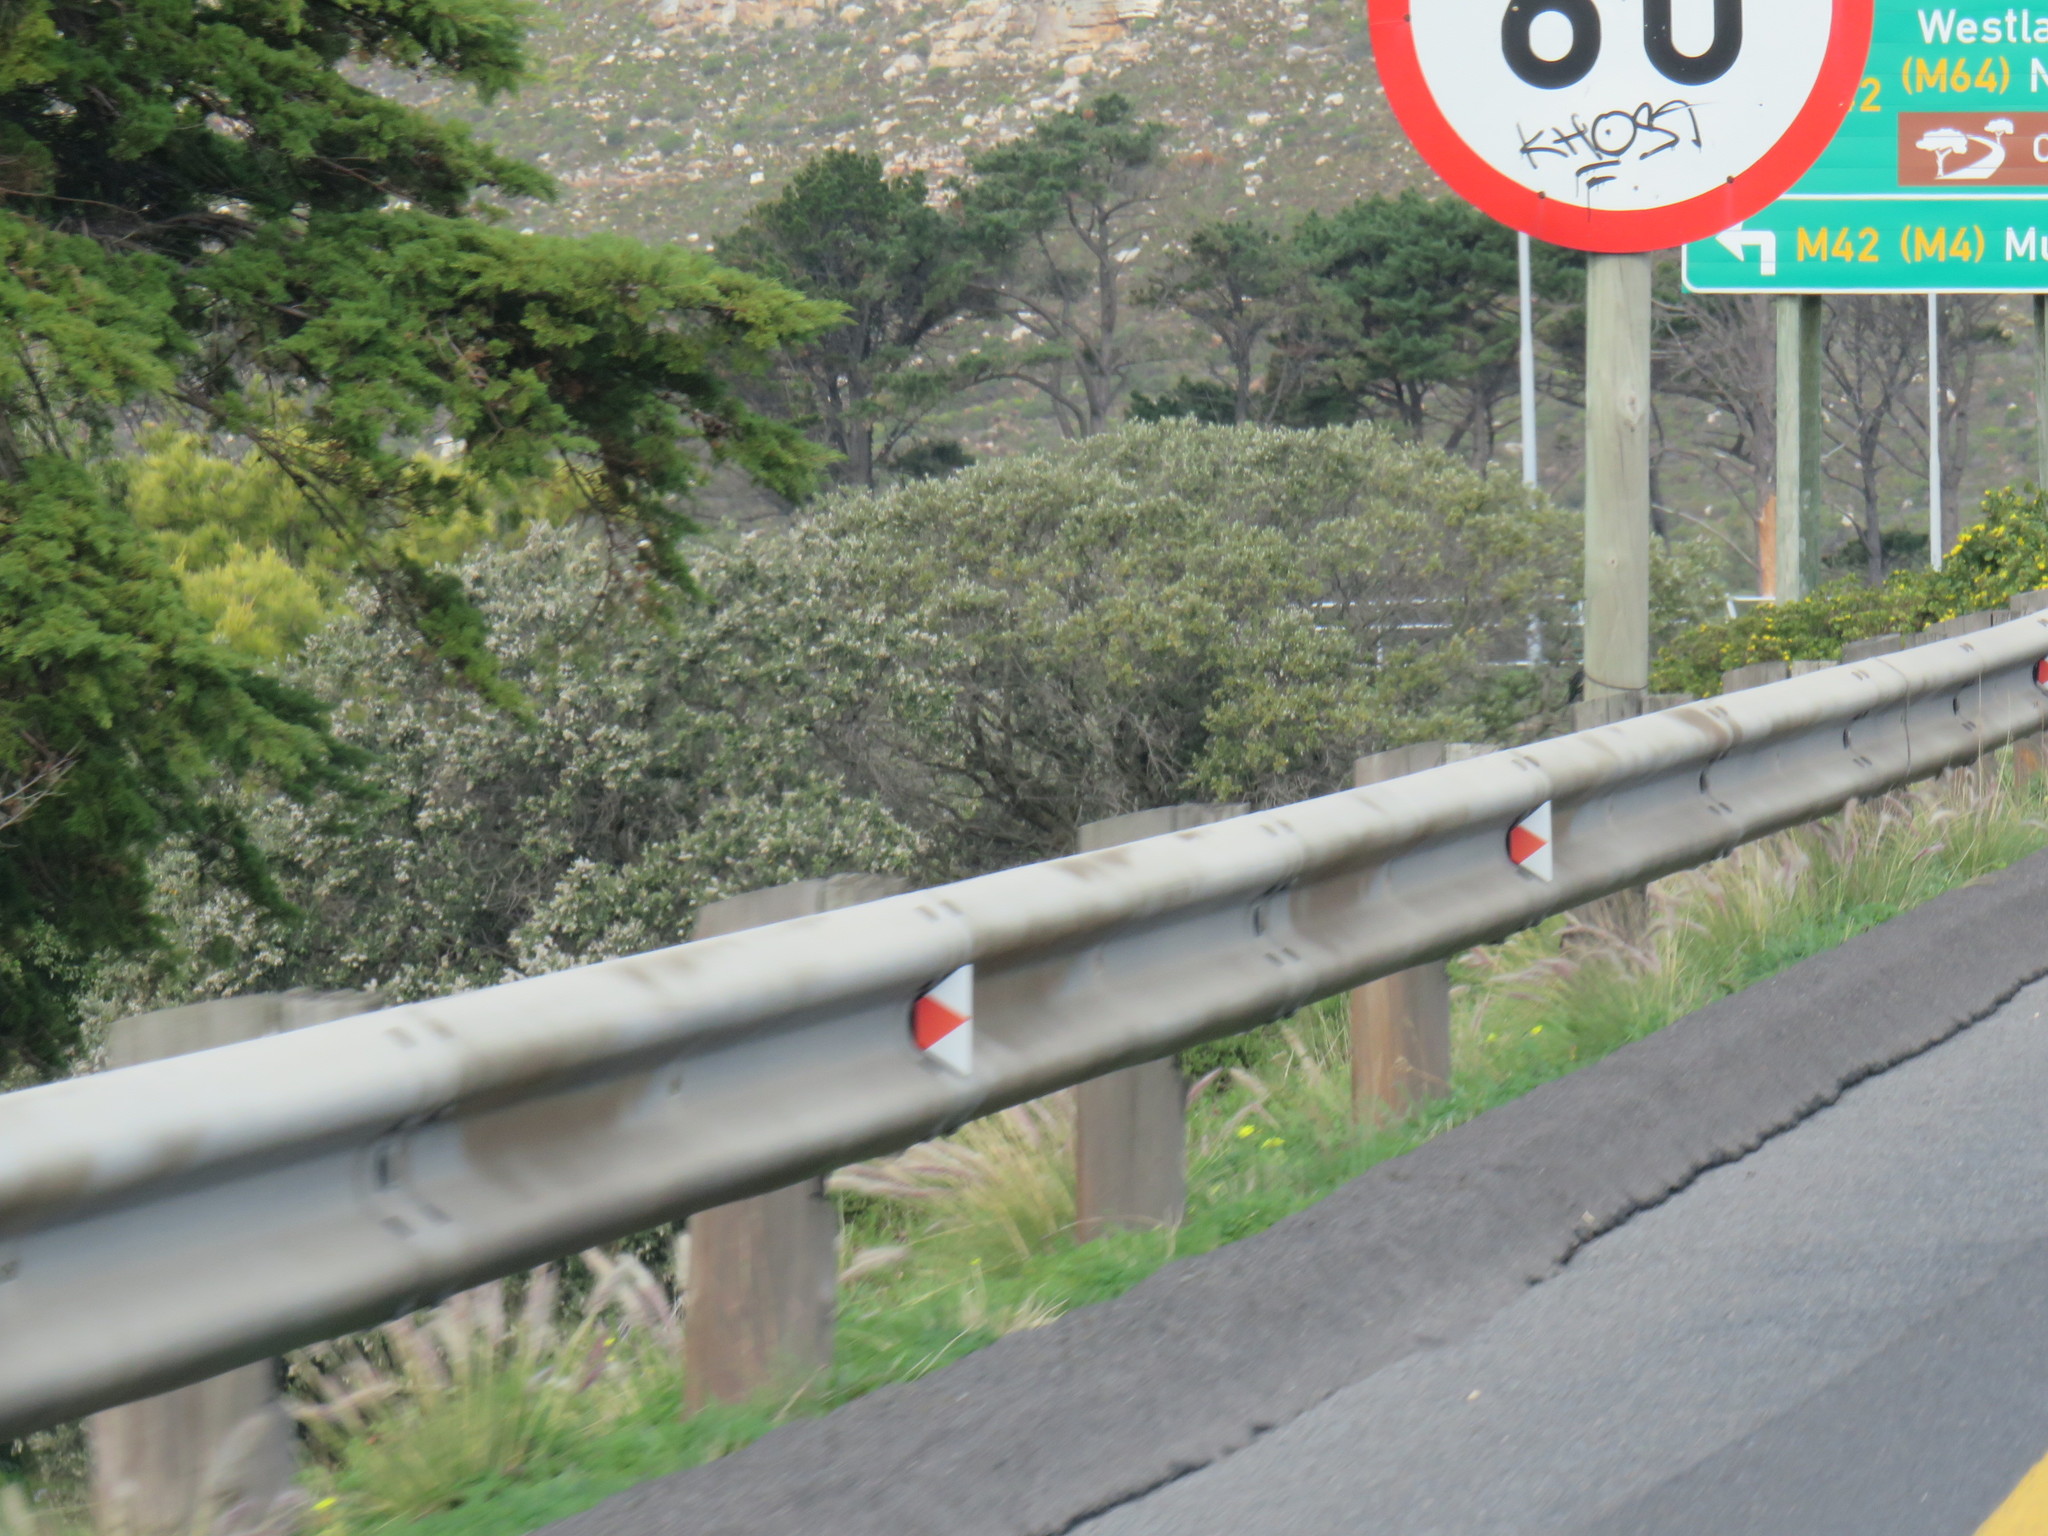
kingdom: Plantae
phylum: Tracheophyta
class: Liliopsida
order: Poales
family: Poaceae
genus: Cenchrus
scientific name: Cenchrus setaceus
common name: Crimson fountaingrass
